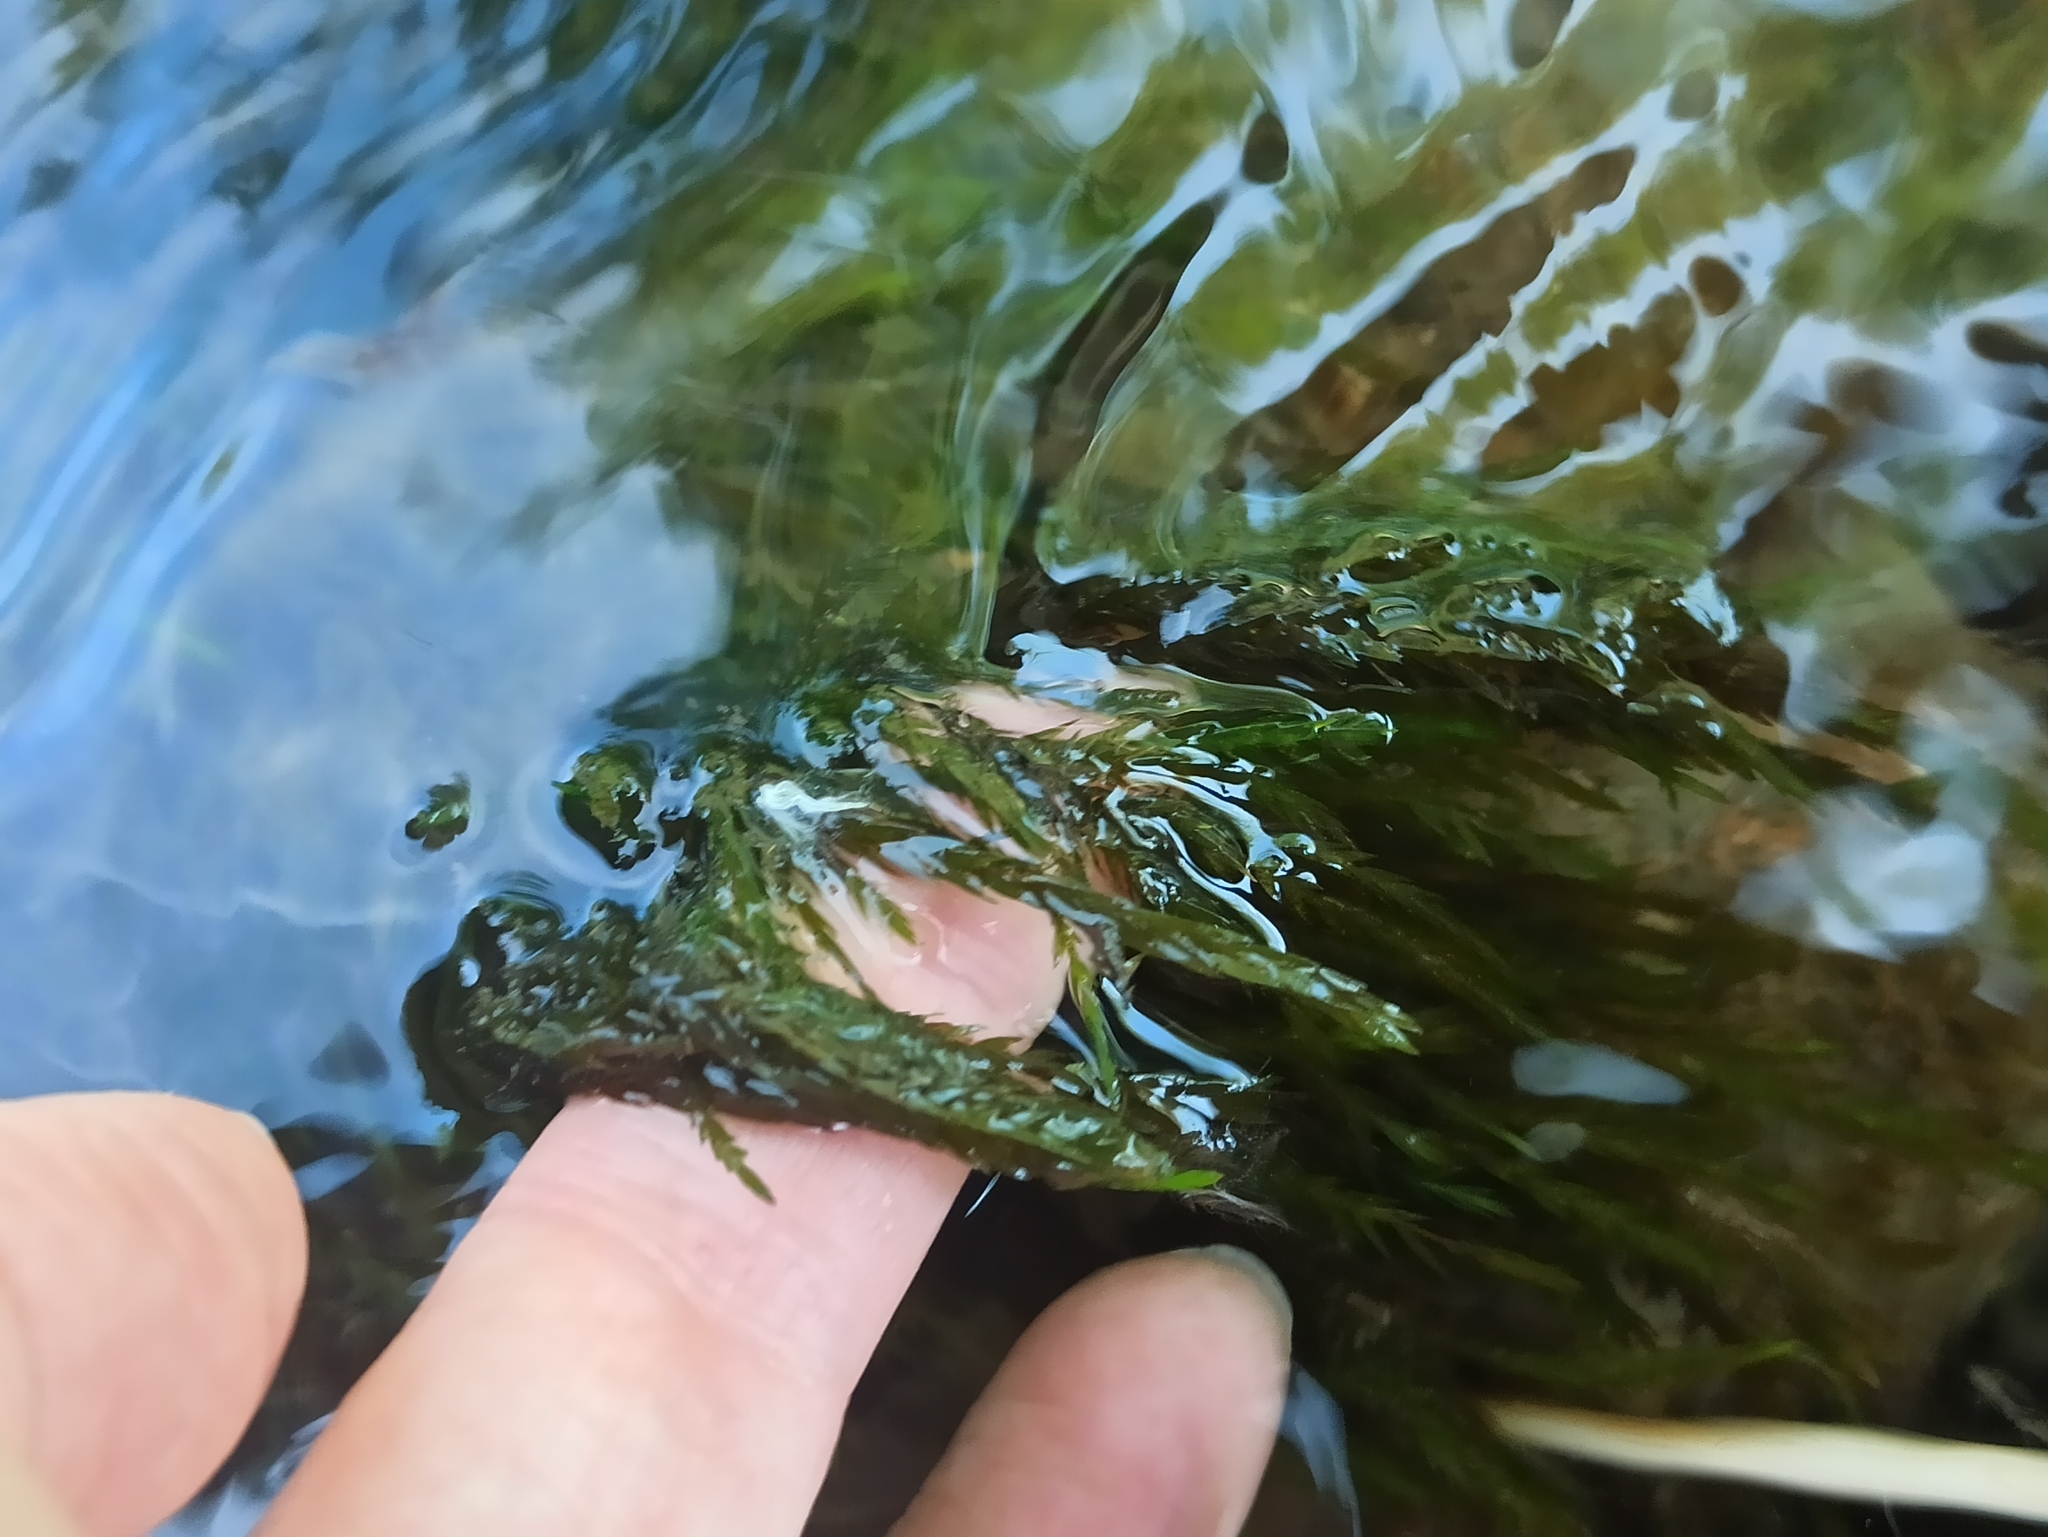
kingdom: Plantae
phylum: Bryophyta
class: Bryopsida
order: Hypnales
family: Fontinalaceae
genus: Fontinalis
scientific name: Fontinalis antipyretica
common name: Greater water-moss
